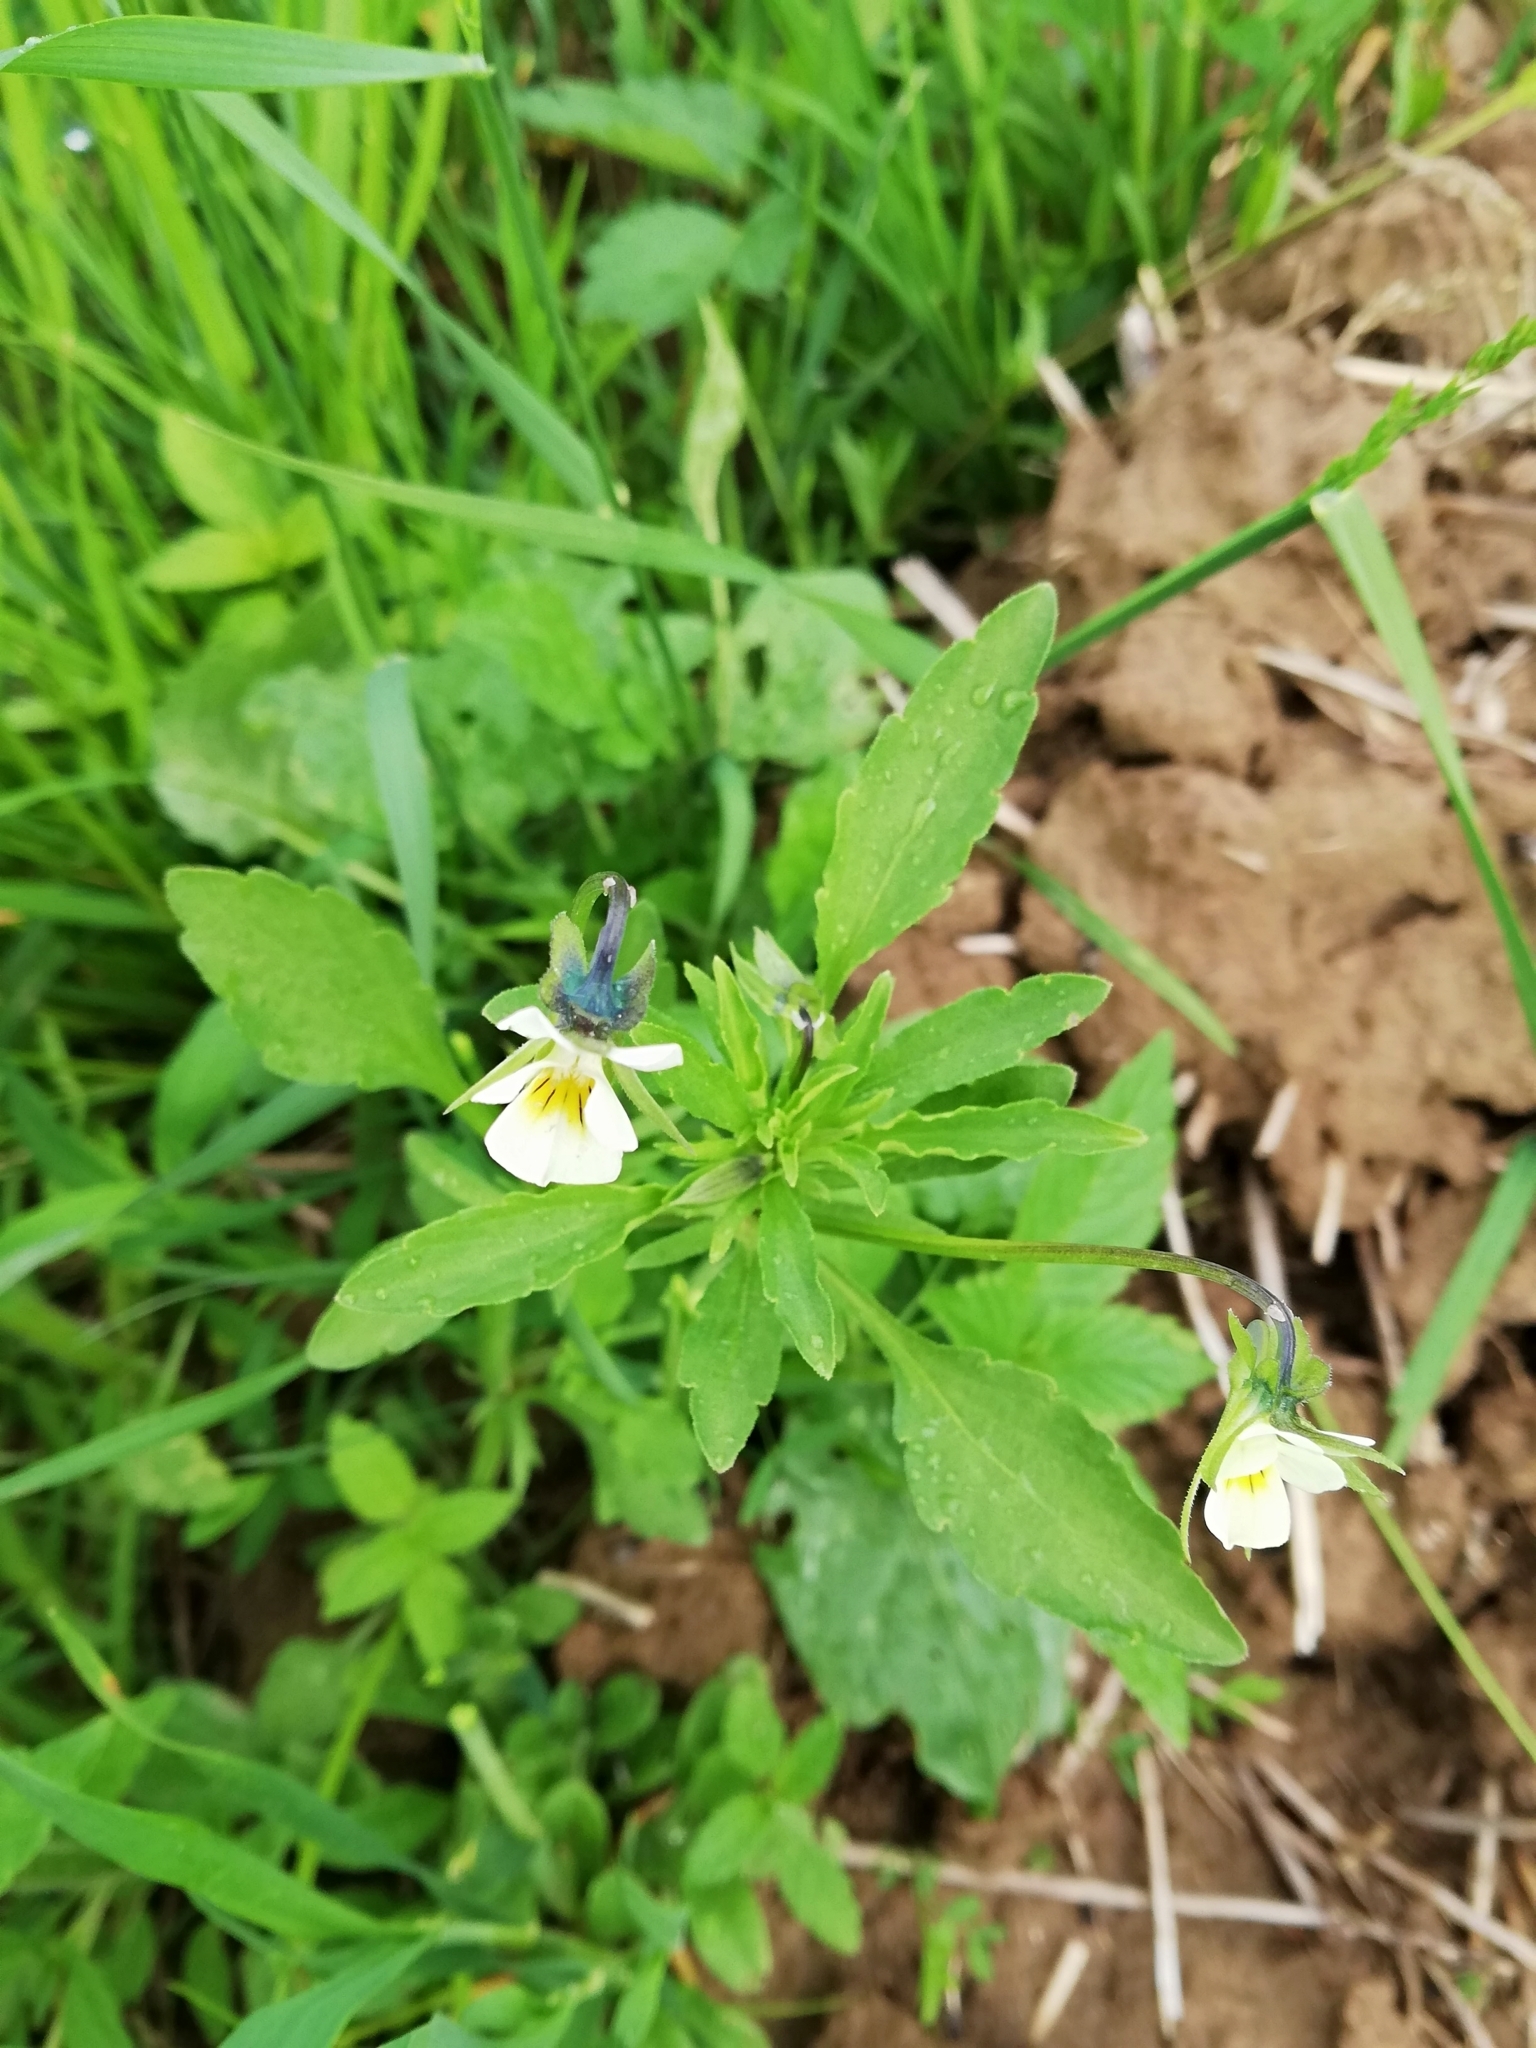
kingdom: Plantae
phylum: Tracheophyta
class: Magnoliopsida
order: Malpighiales
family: Violaceae
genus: Viola
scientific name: Viola arvensis
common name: Field pansy
